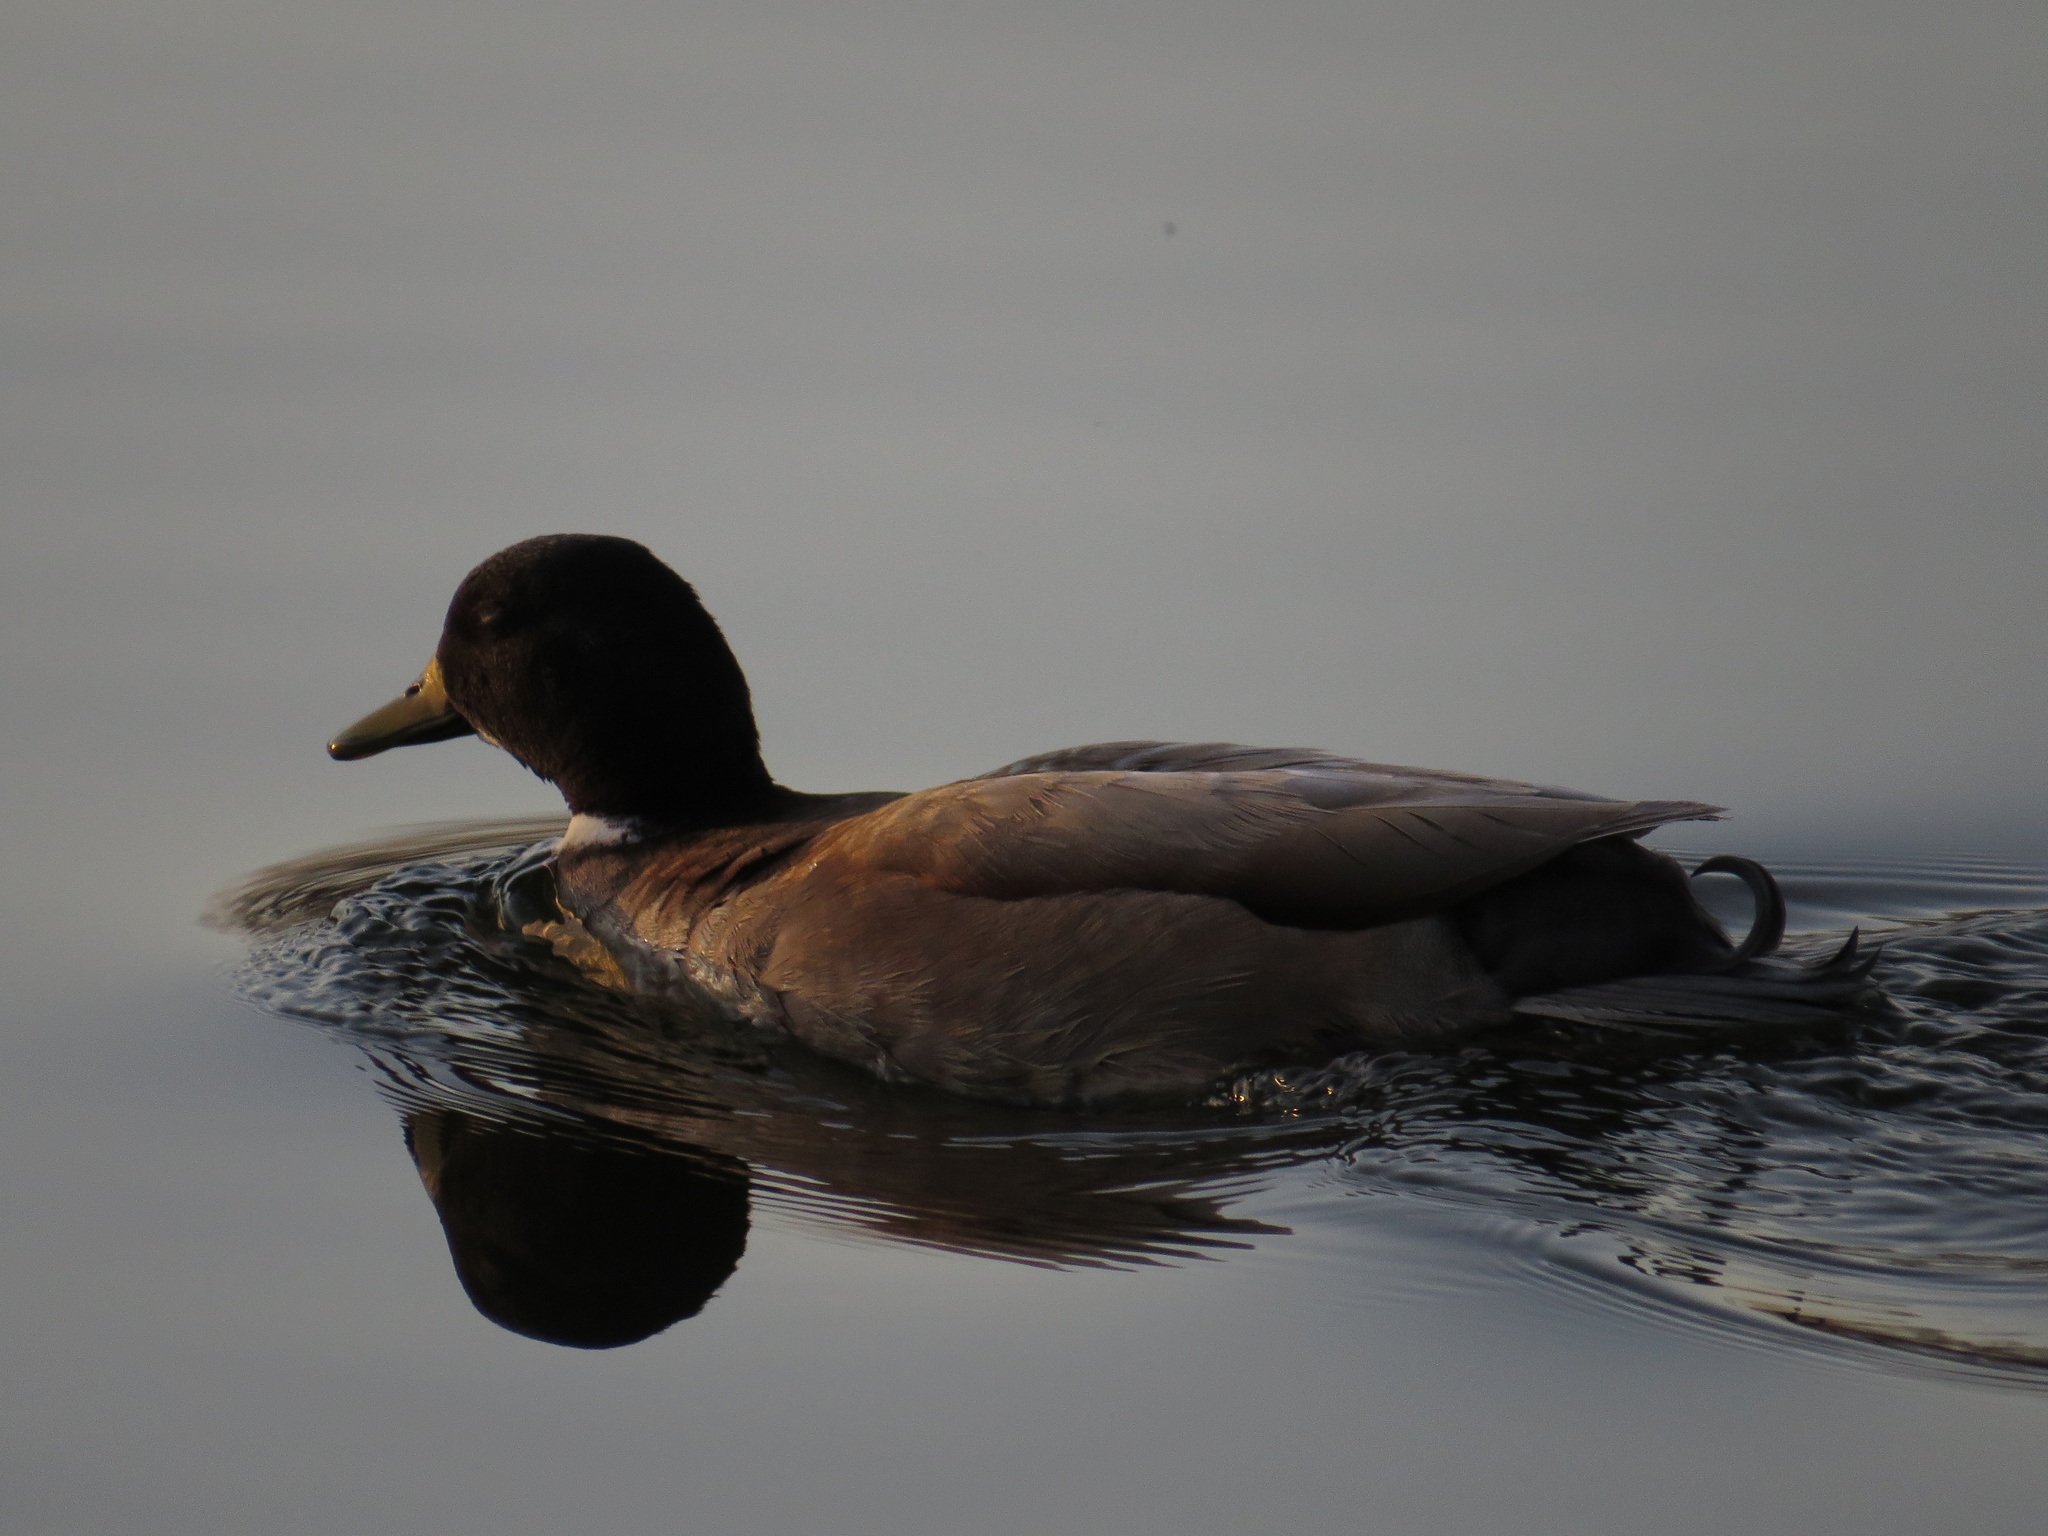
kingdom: Animalia
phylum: Chordata
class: Aves
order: Anseriformes
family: Anatidae
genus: Anas
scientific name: Anas platyrhynchos
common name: Mallard
